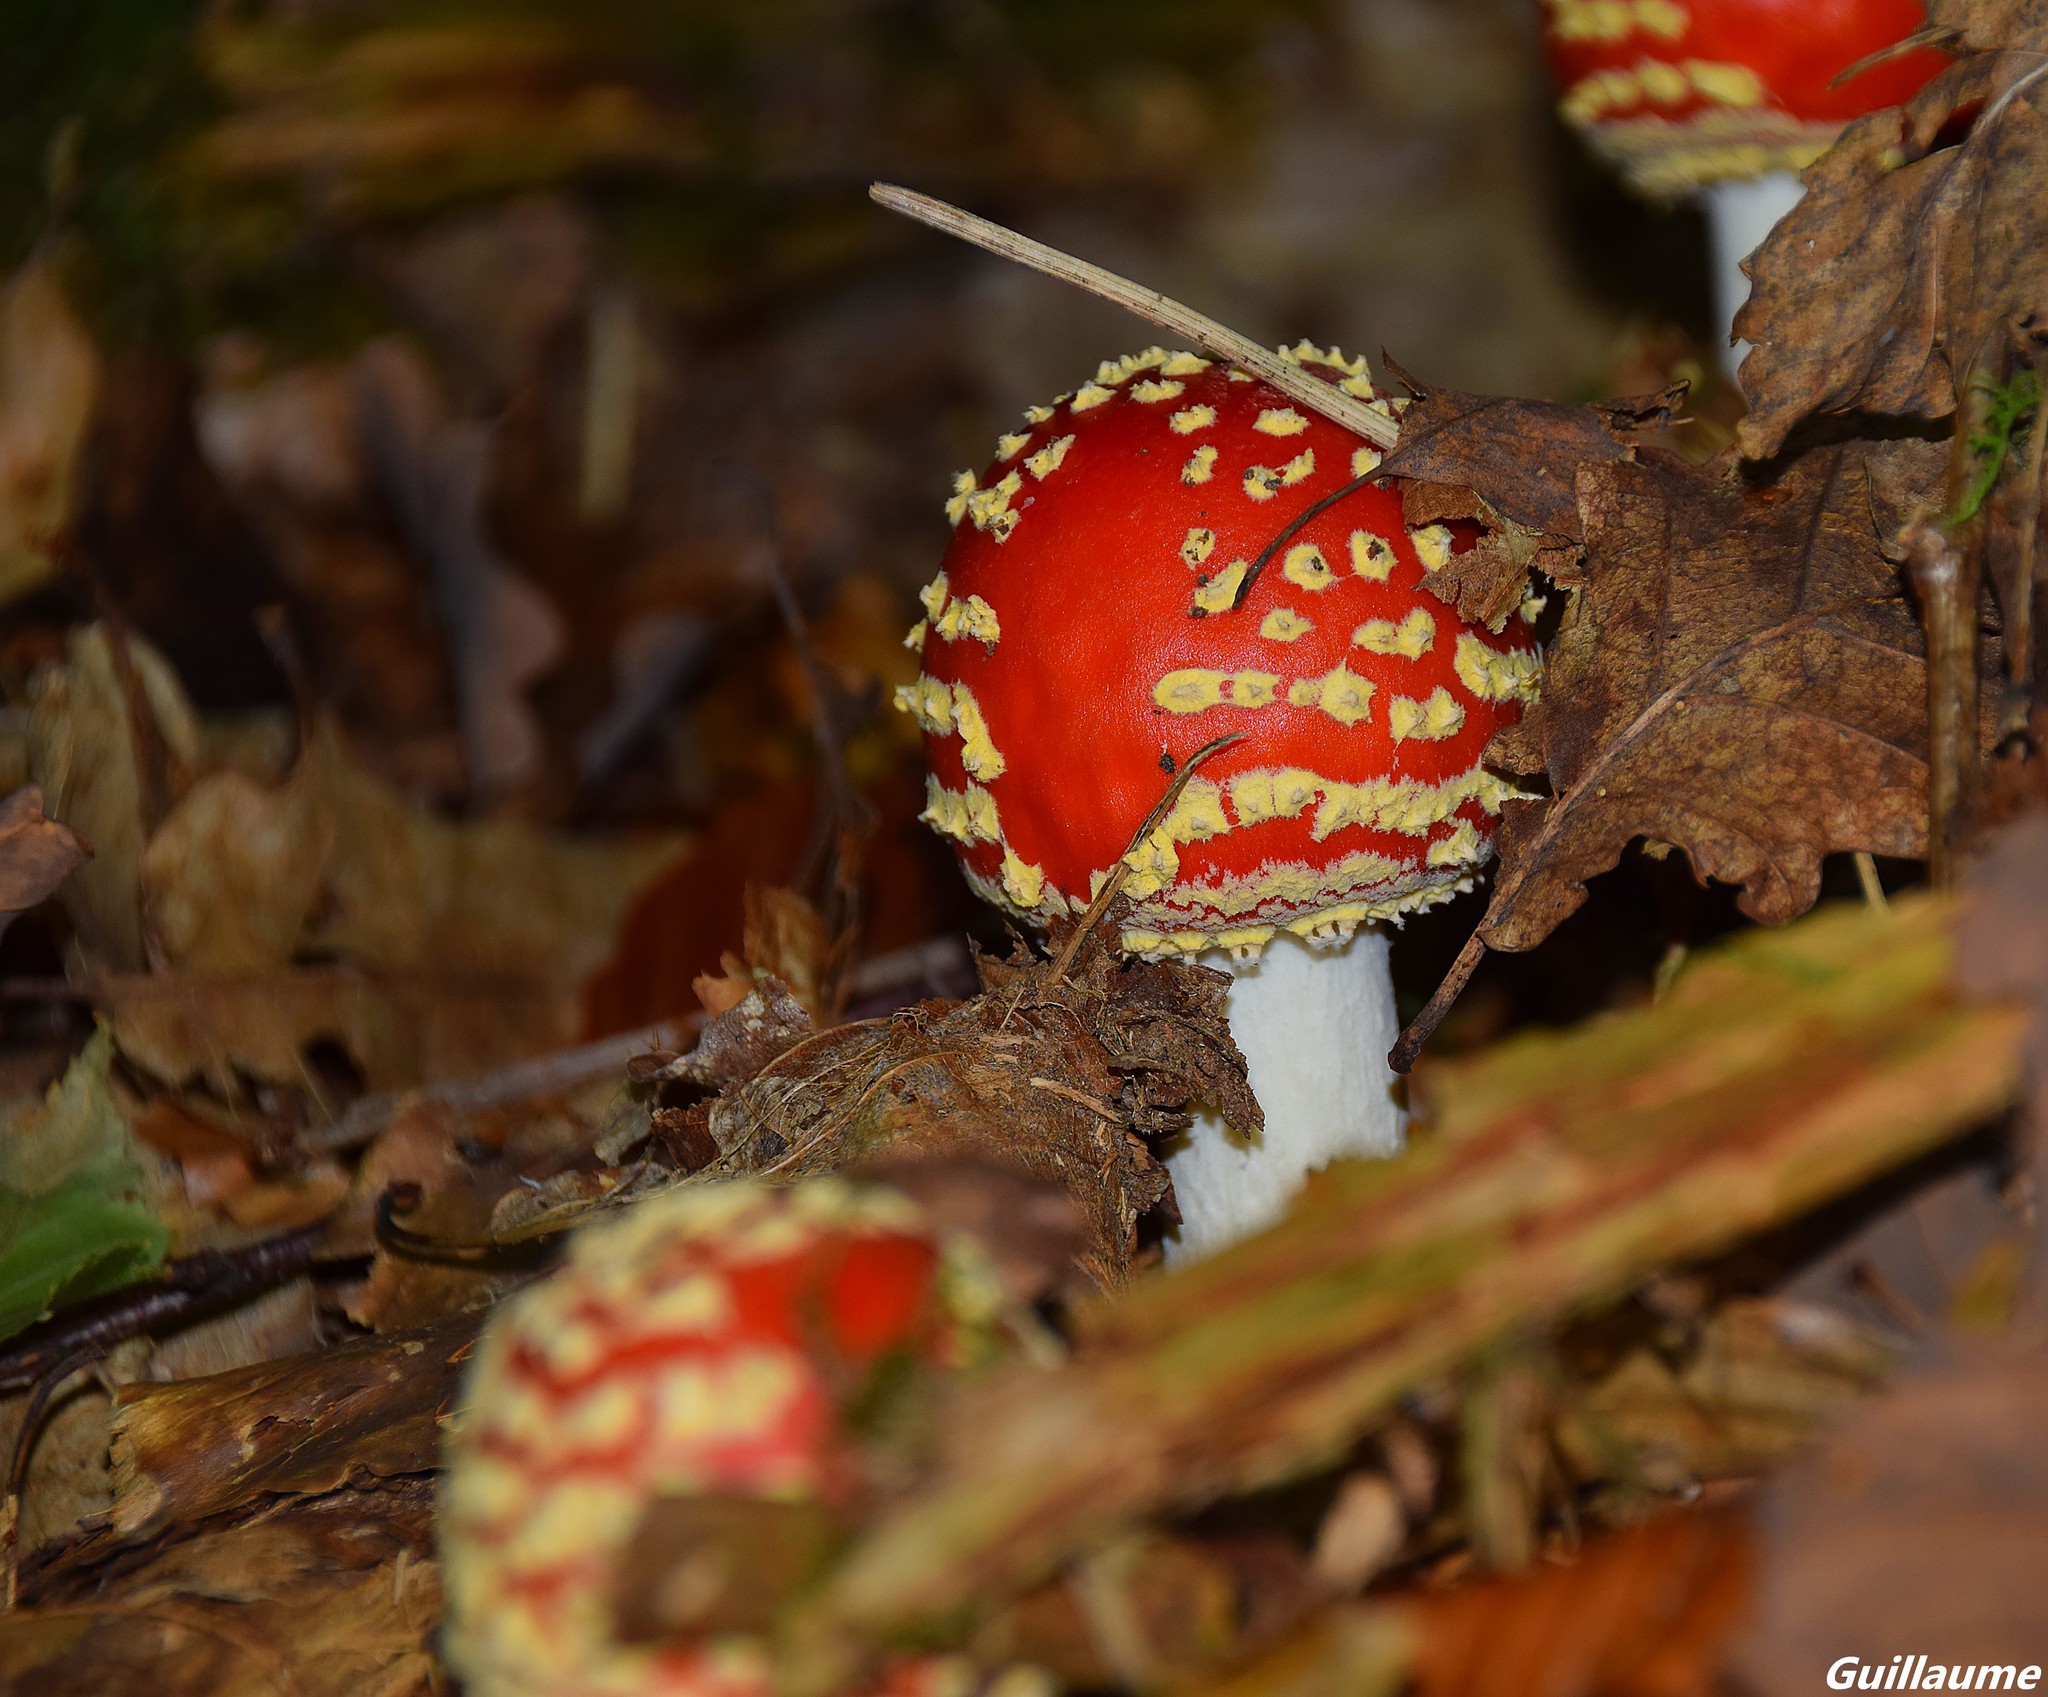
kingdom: Fungi
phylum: Basidiomycota
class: Agaricomycetes
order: Agaricales
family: Amanitaceae
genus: Amanita
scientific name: Amanita muscaria
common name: Fly agaric
